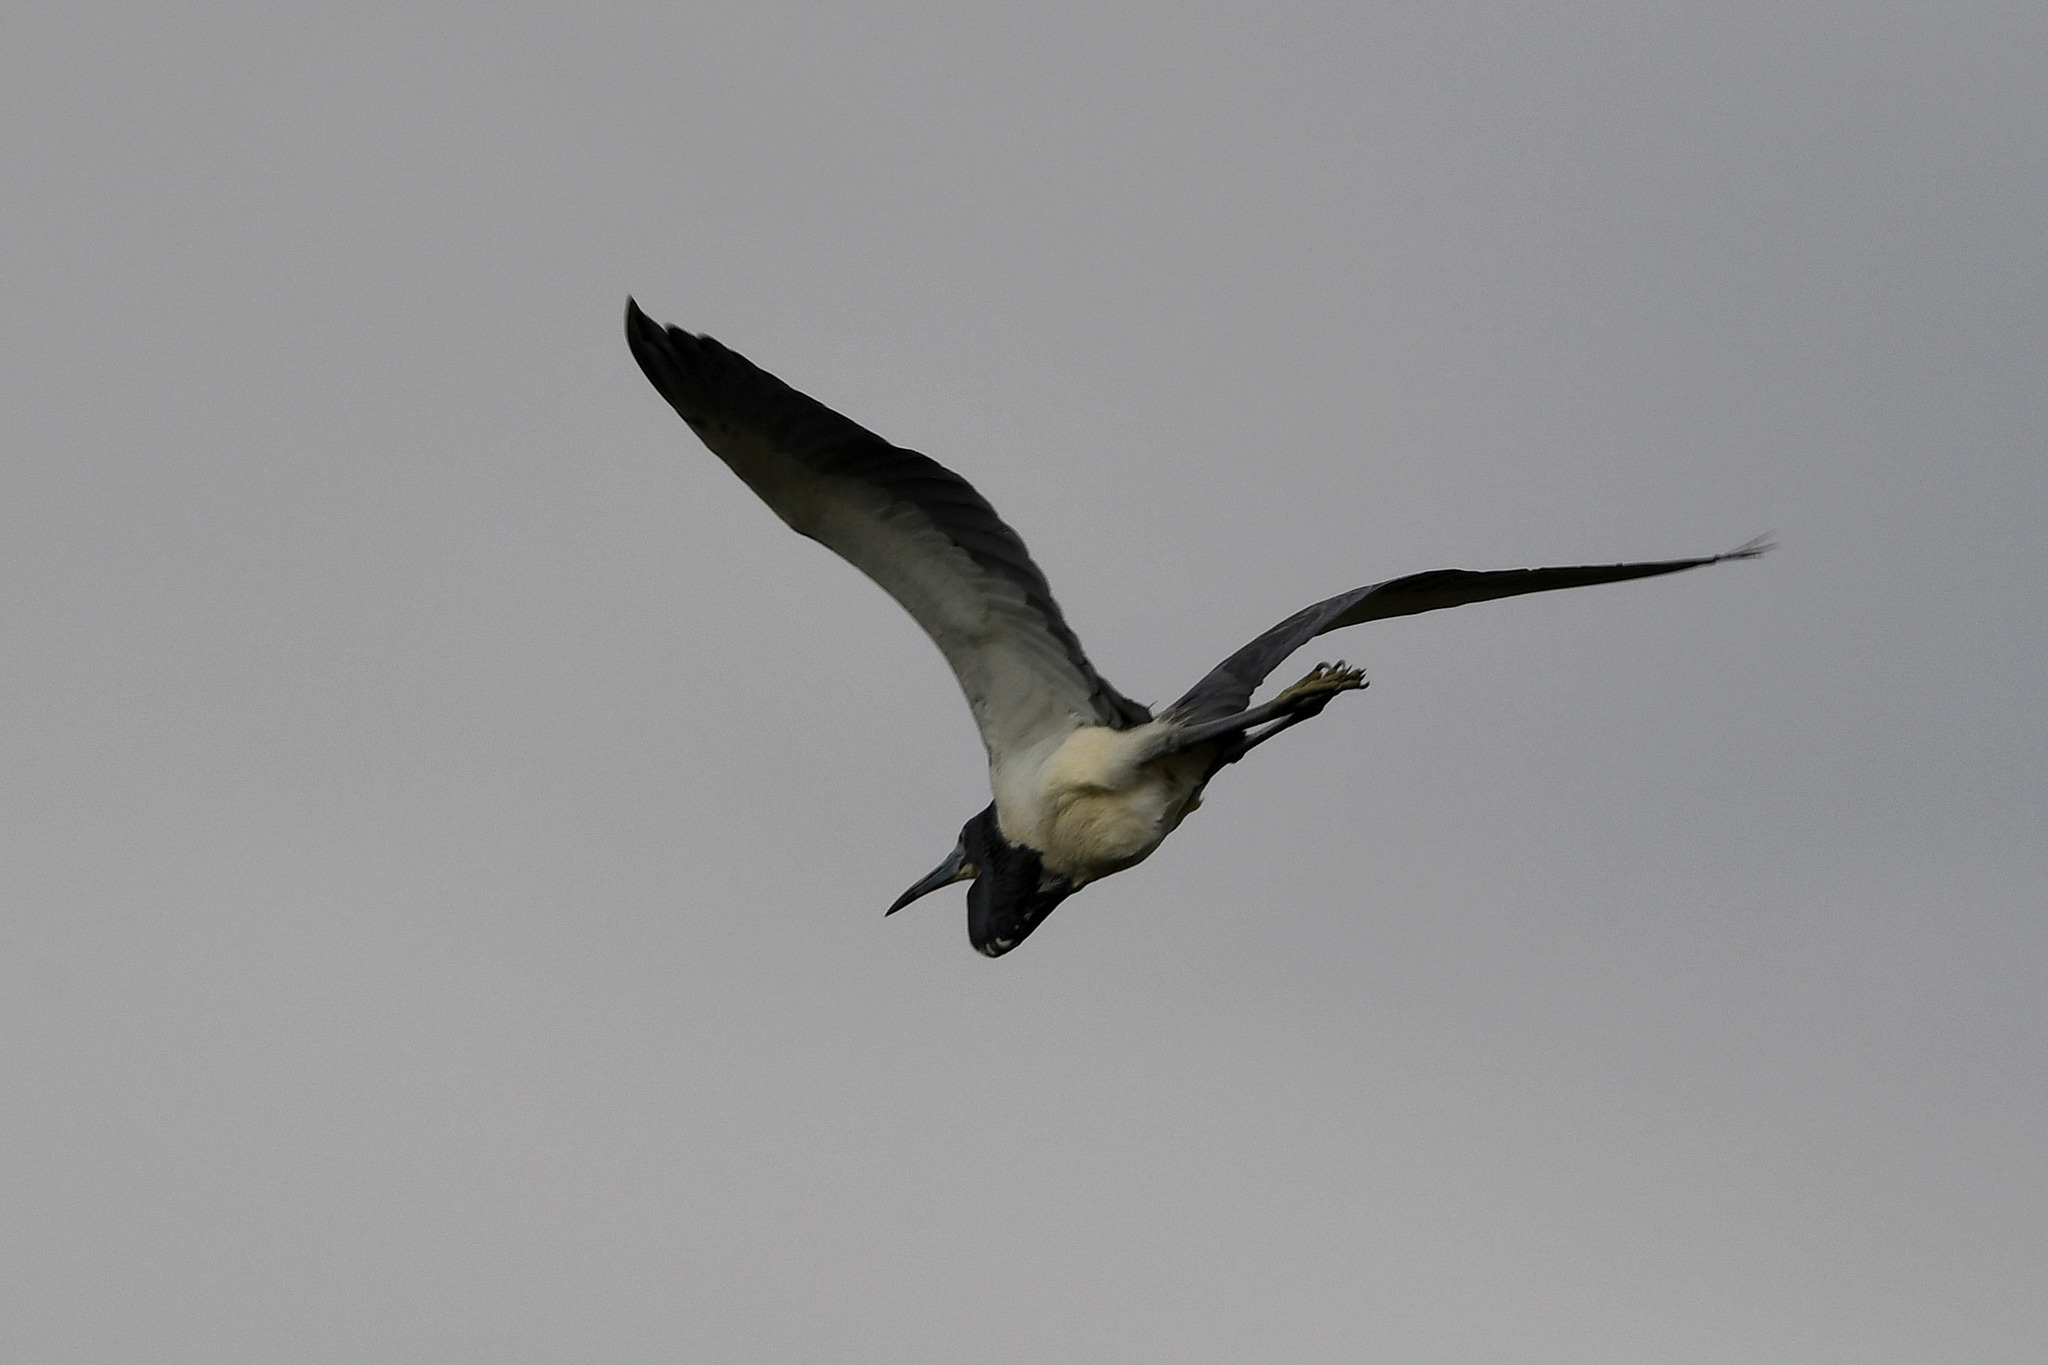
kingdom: Animalia
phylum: Chordata
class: Aves
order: Pelecaniformes
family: Ardeidae
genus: Egretta
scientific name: Egretta tricolor
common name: Tricolored heron
